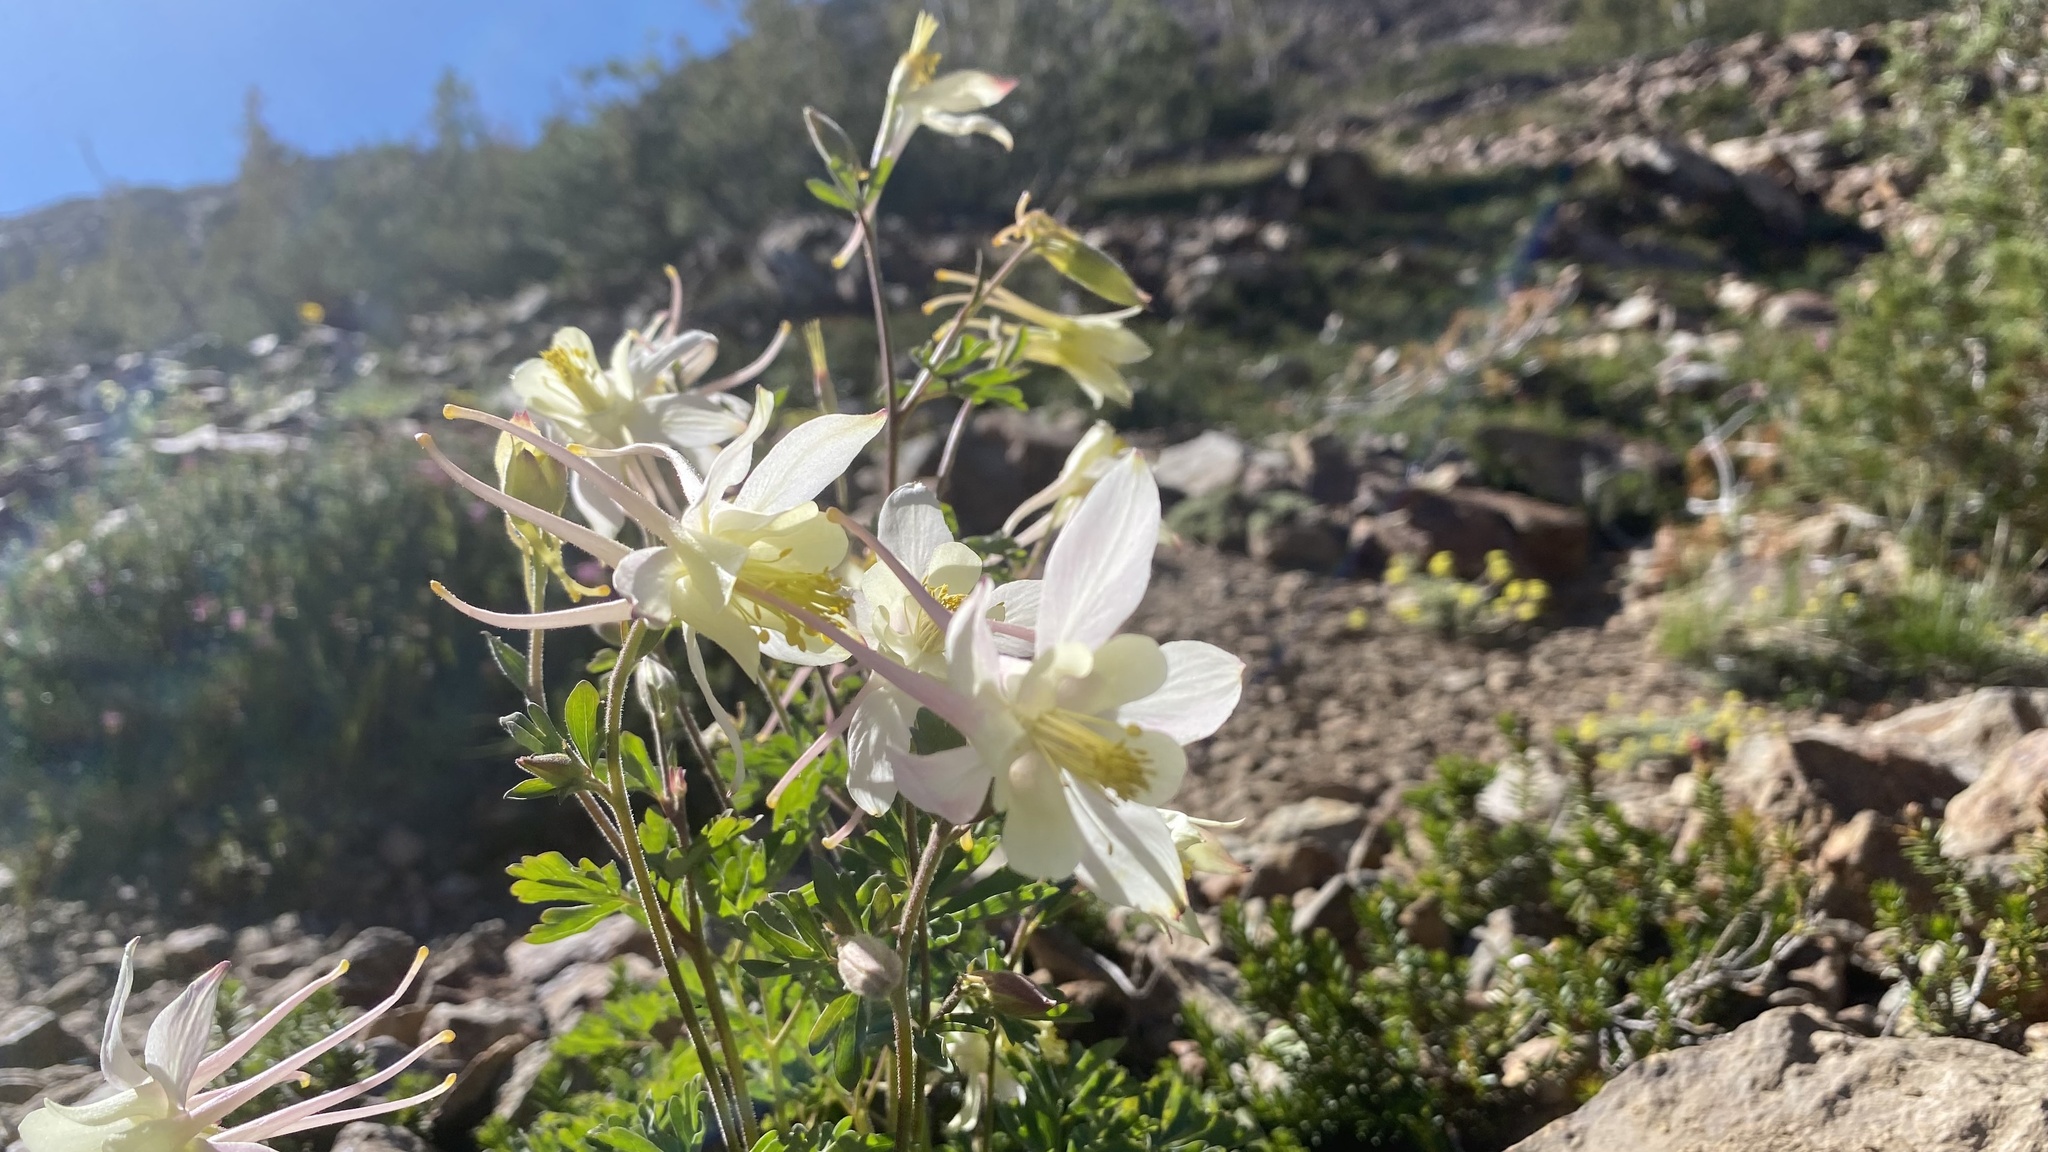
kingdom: Plantae
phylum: Tracheophyta
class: Magnoliopsida
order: Ranunculales
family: Ranunculaceae
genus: Aquilegia
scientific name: Aquilegia pubescens
